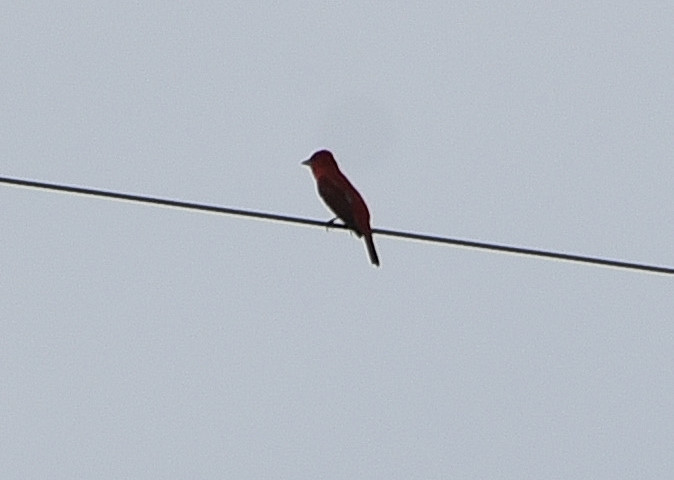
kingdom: Animalia
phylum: Chordata
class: Aves
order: Passeriformes
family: Cardinalidae
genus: Piranga
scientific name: Piranga rubra
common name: Summer tanager
